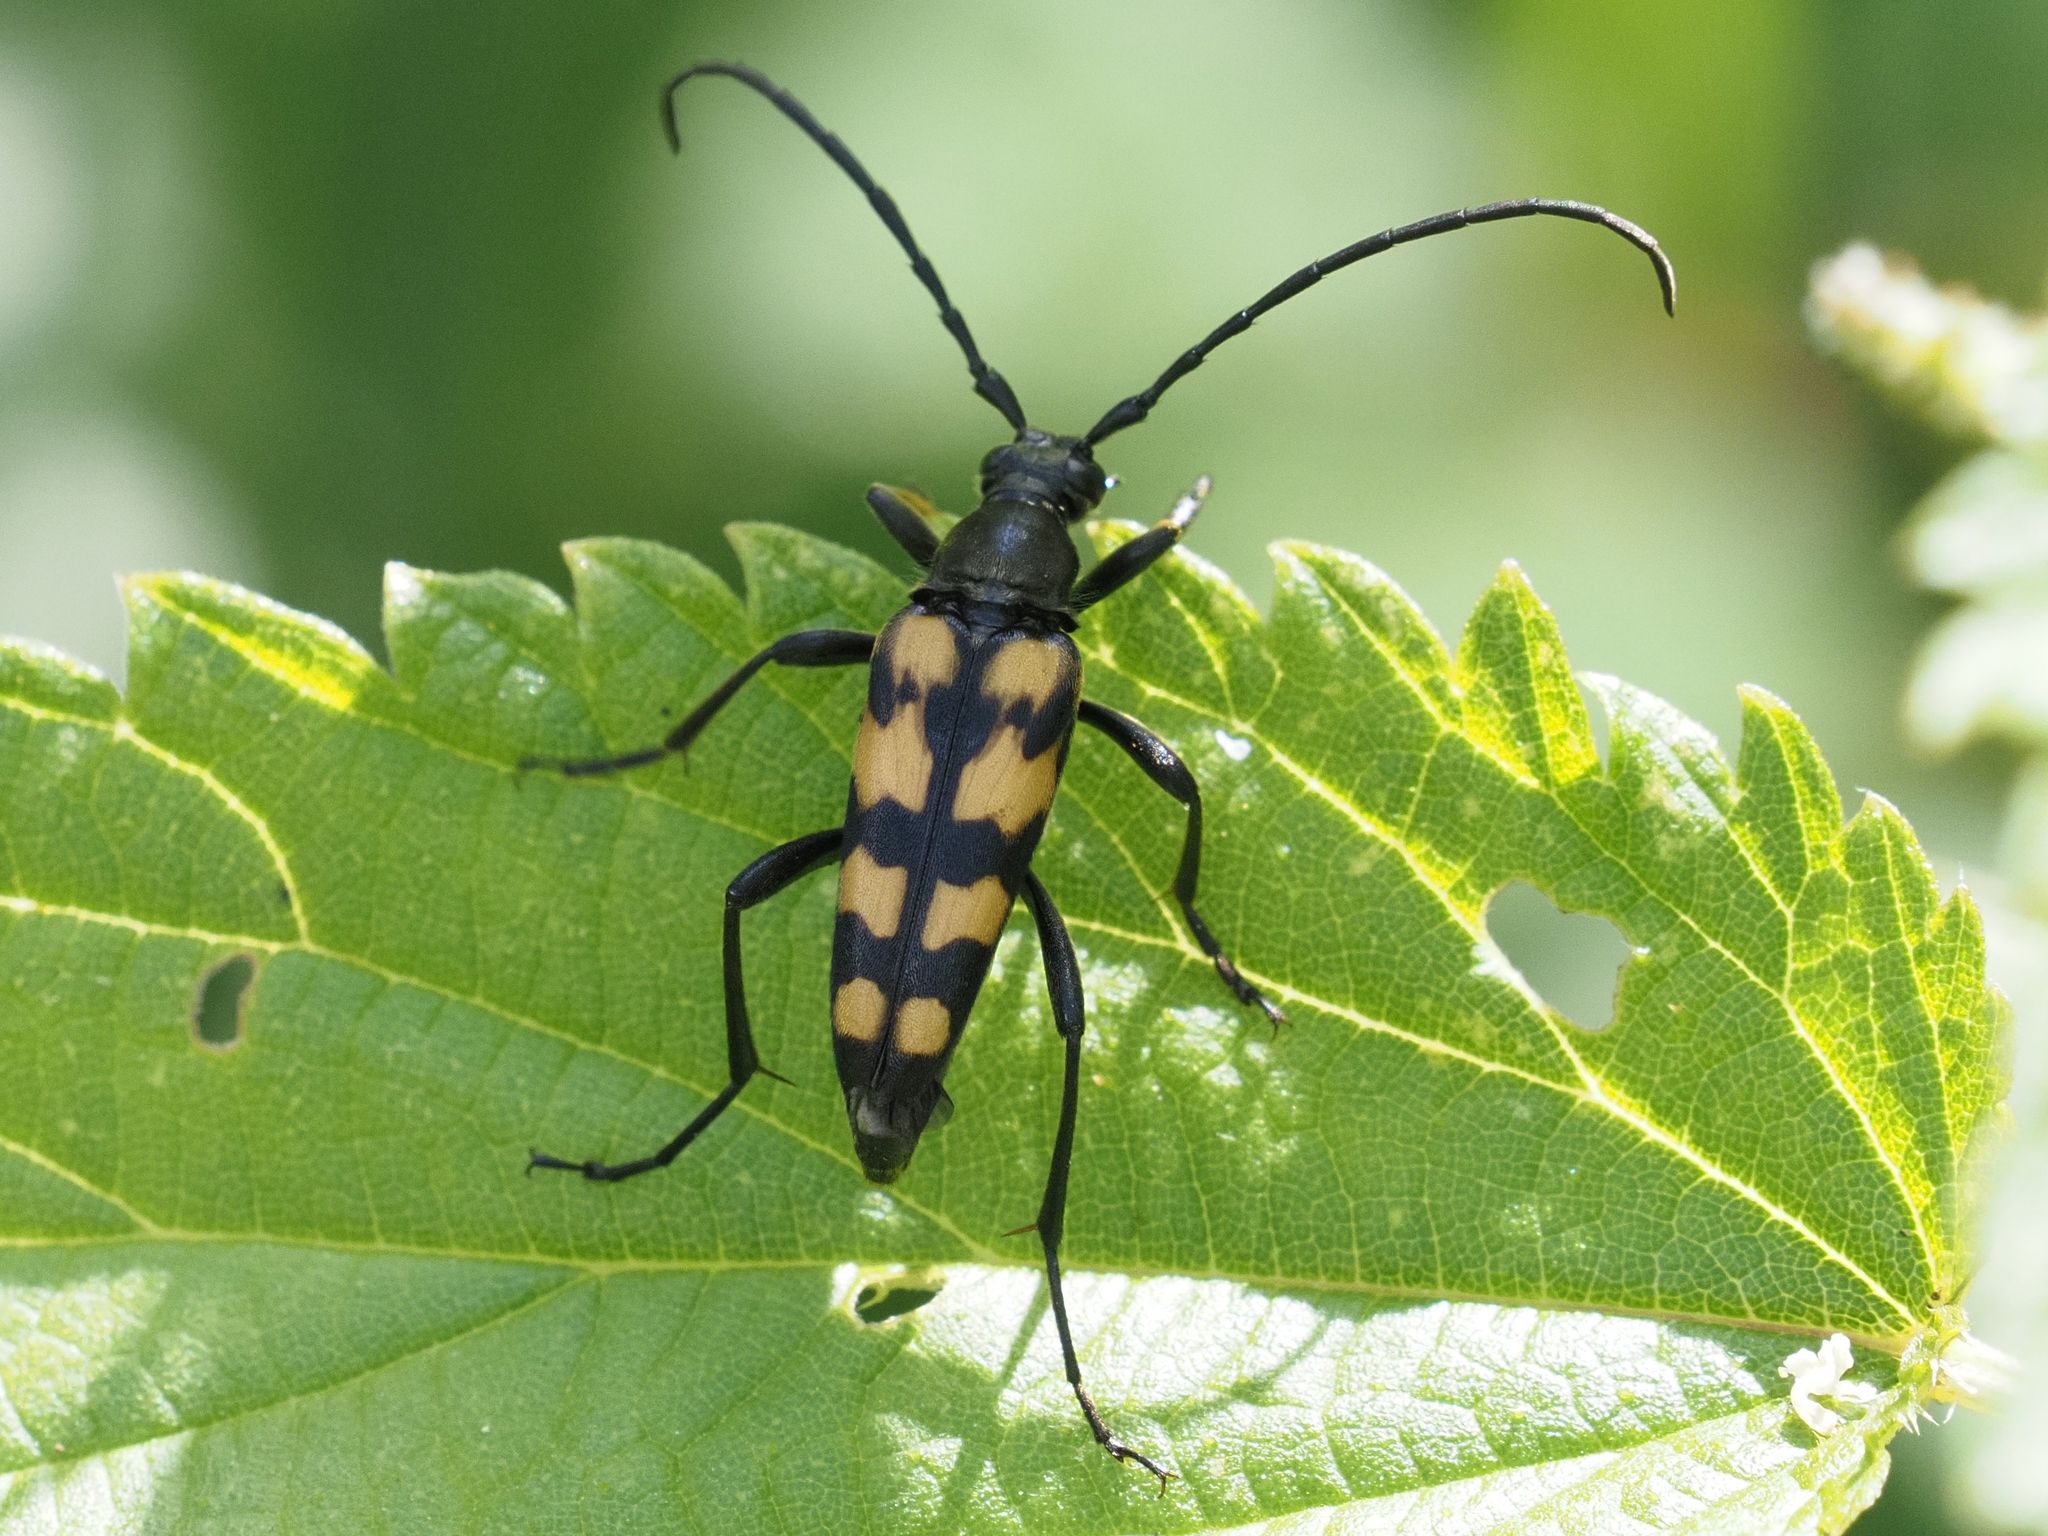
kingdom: Animalia
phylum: Arthropoda
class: Insecta
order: Coleoptera
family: Cerambycidae
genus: Leptura
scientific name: Leptura quadrifasciata
